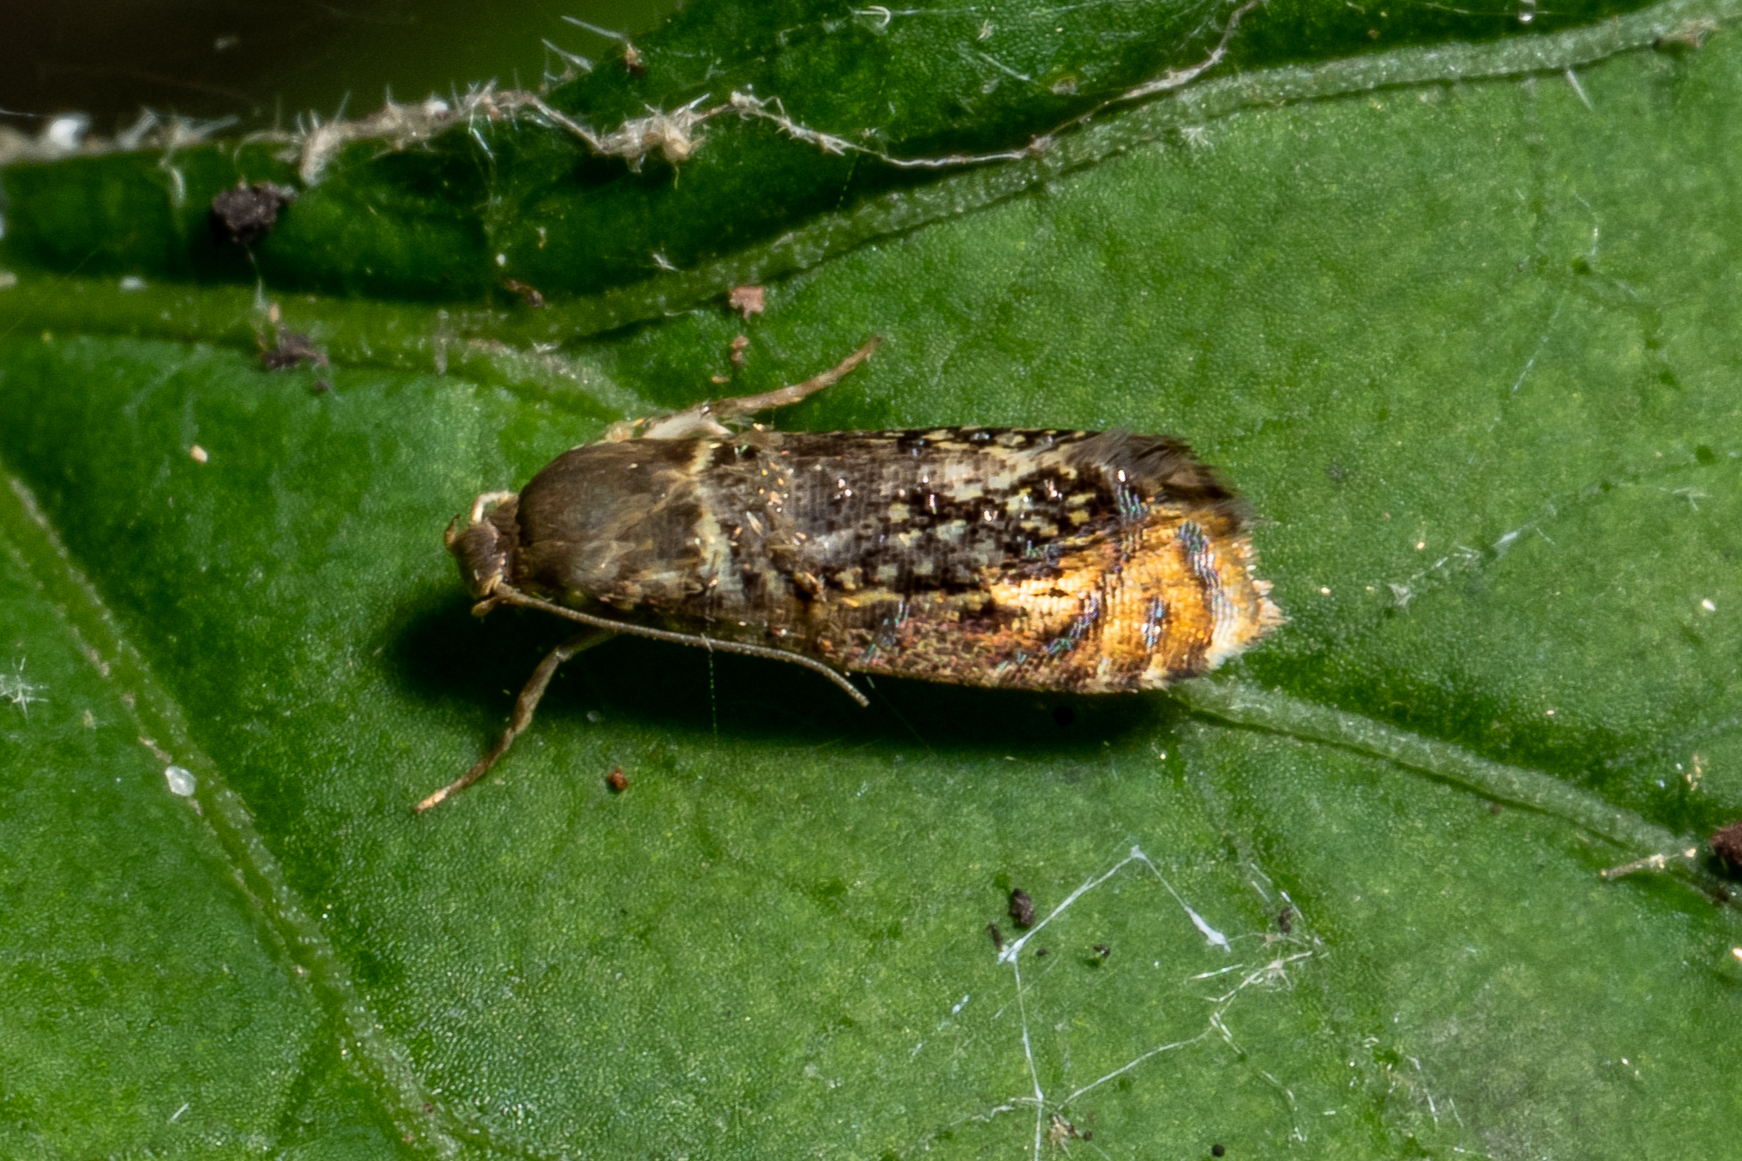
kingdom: Animalia
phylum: Arthropoda
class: Insecta
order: Lepidoptera
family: Glyphipterigidae
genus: Glyphipterix
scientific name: Glyphipterix quadragintapunctata
